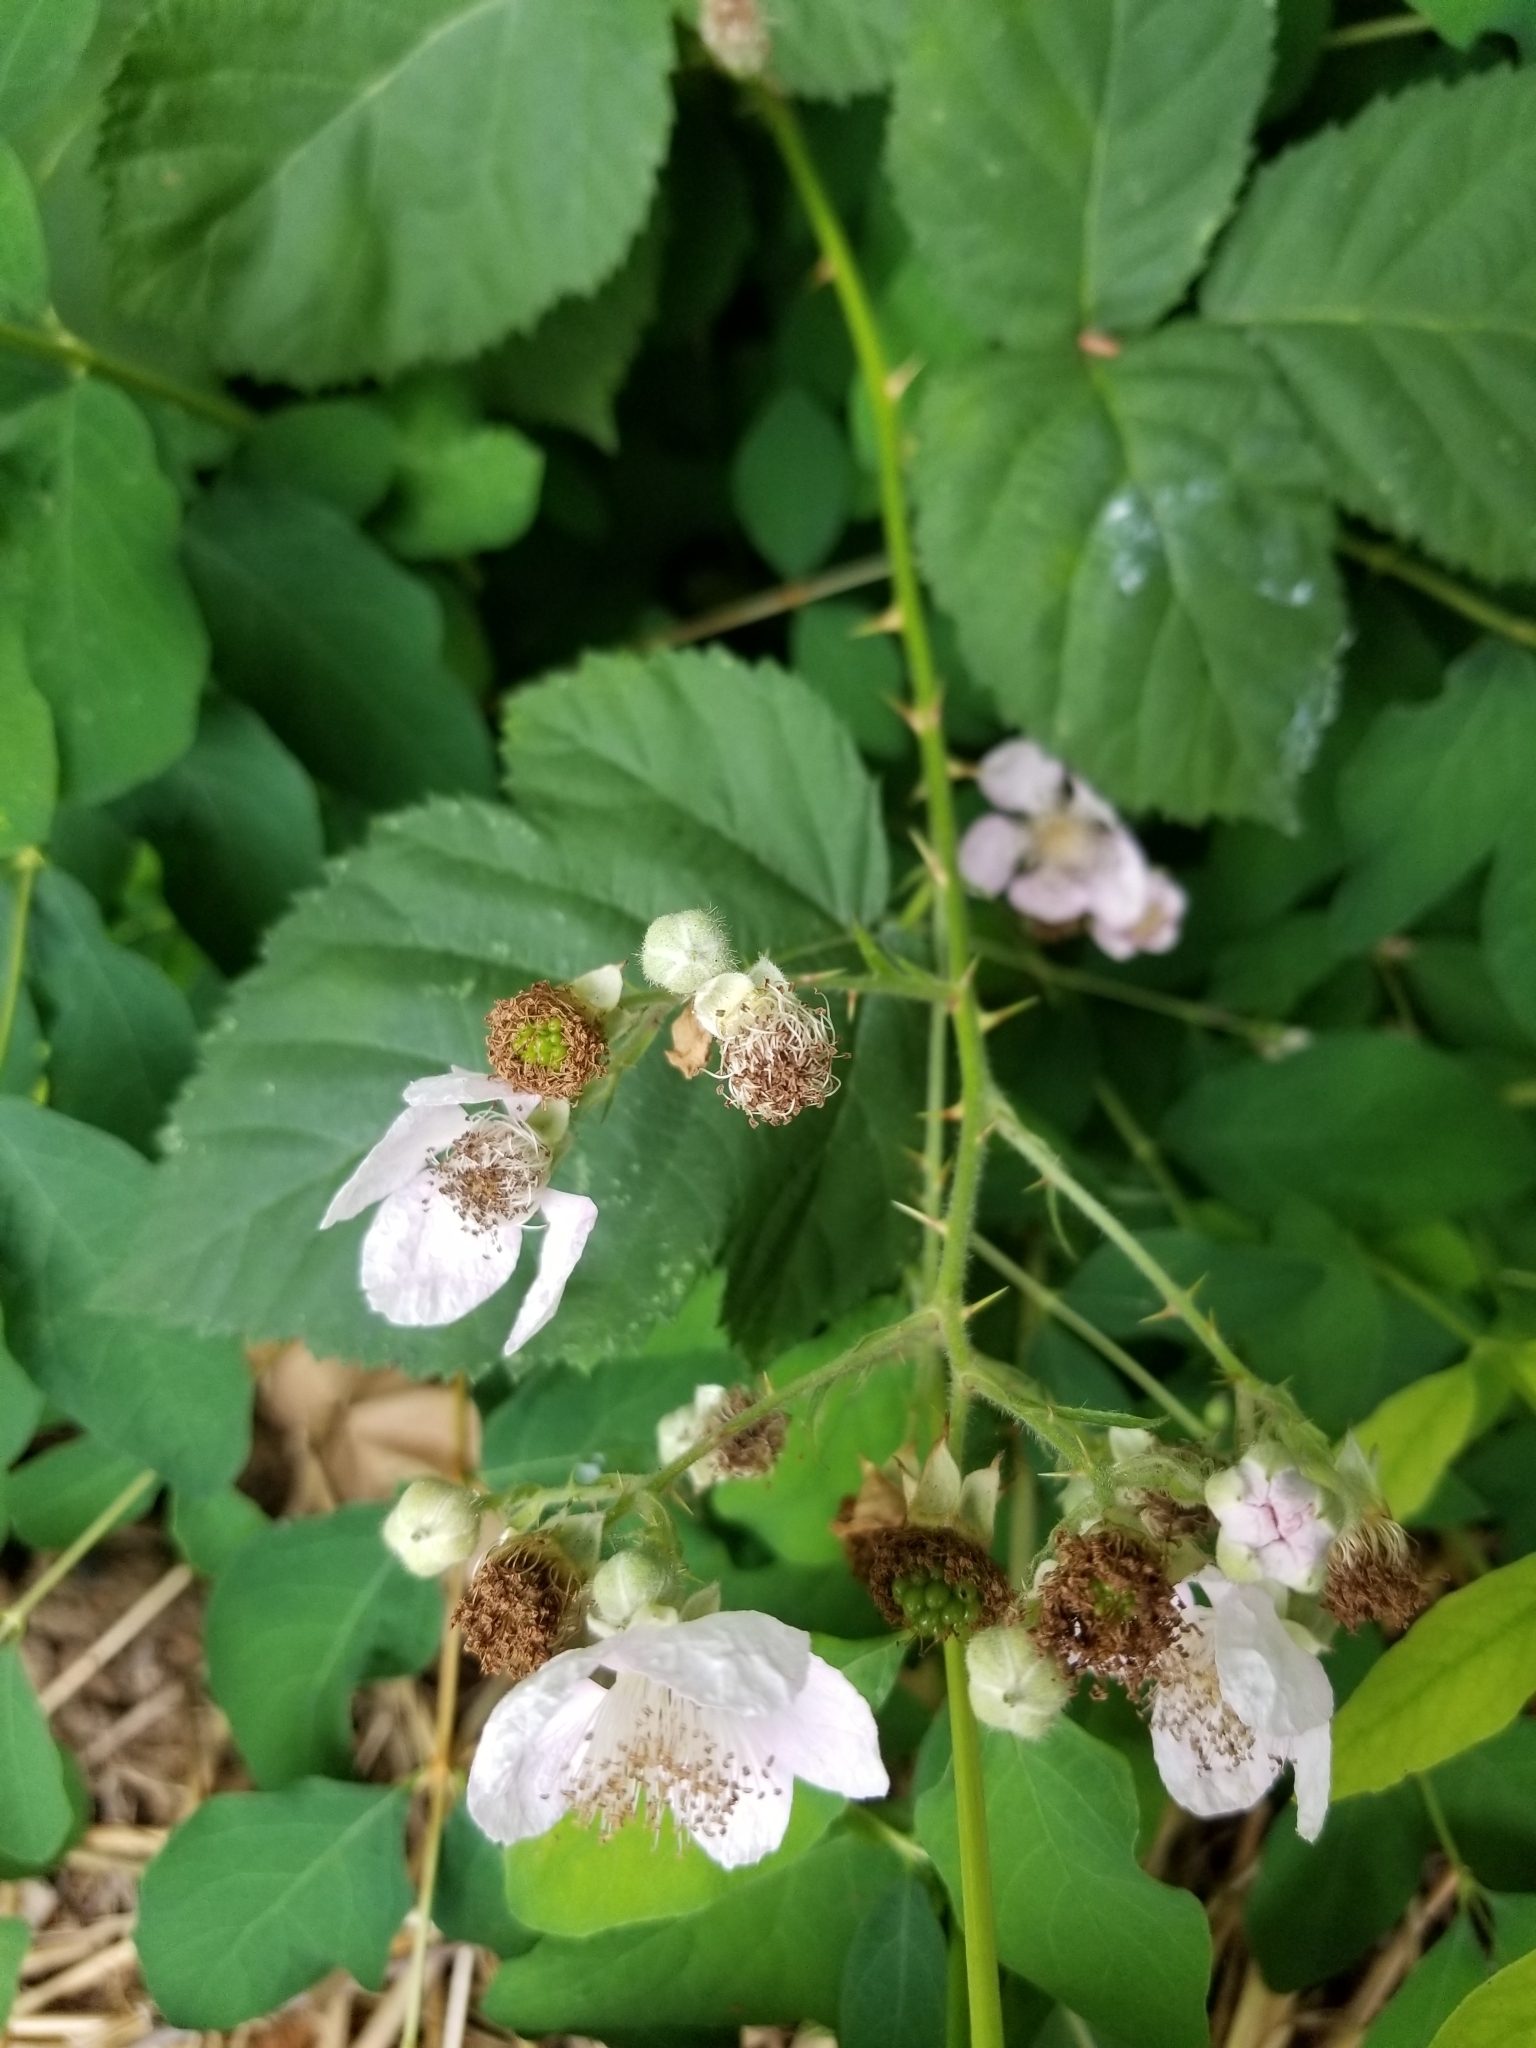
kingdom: Plantae
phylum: Tracheophyta
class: Magnoliopsida
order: Rosales
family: Rosaceae
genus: Rubus
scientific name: Rubus armeniacus
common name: Himalayan blackberry
